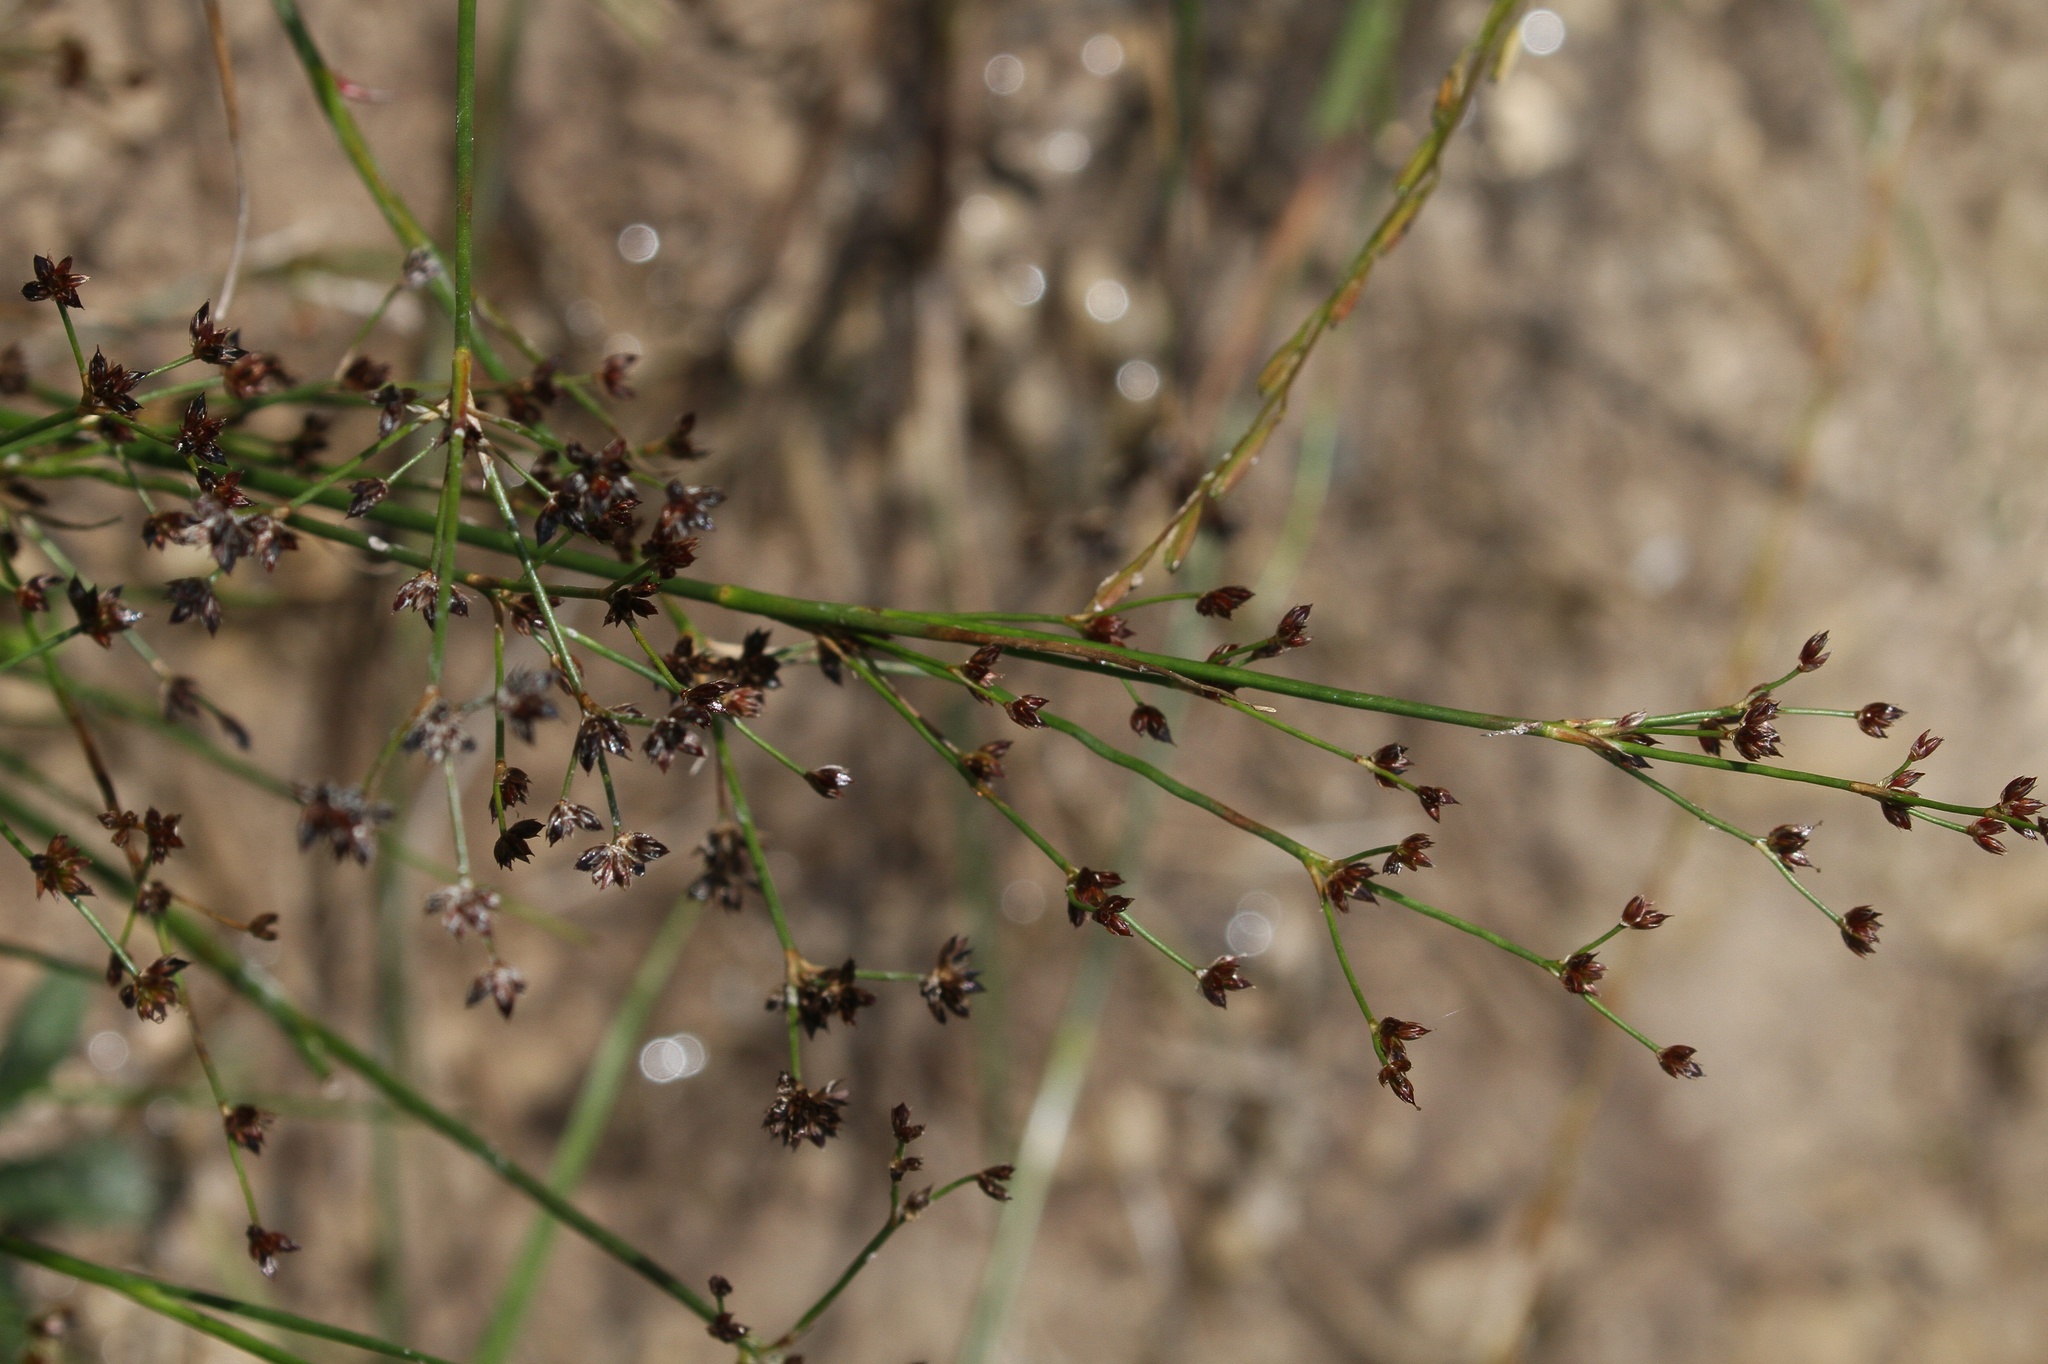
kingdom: Plantae
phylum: Tracheophyta
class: Liliopsida
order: Poales
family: Juncaceae
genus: Juncus
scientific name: Juncus articulatus
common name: Jointed rush
